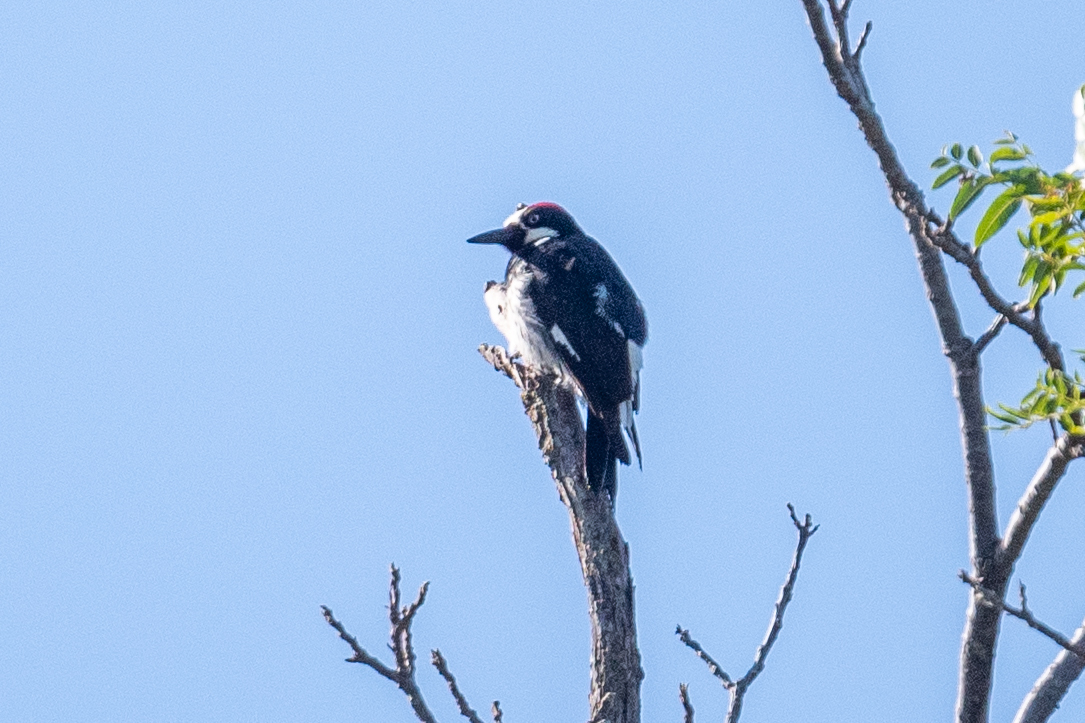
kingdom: Animalia
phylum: Chordata
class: Aves
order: Piciformes
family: Picidae
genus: Melanerpes
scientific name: Melanerpes formicivorus
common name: Acorn woodpecker
